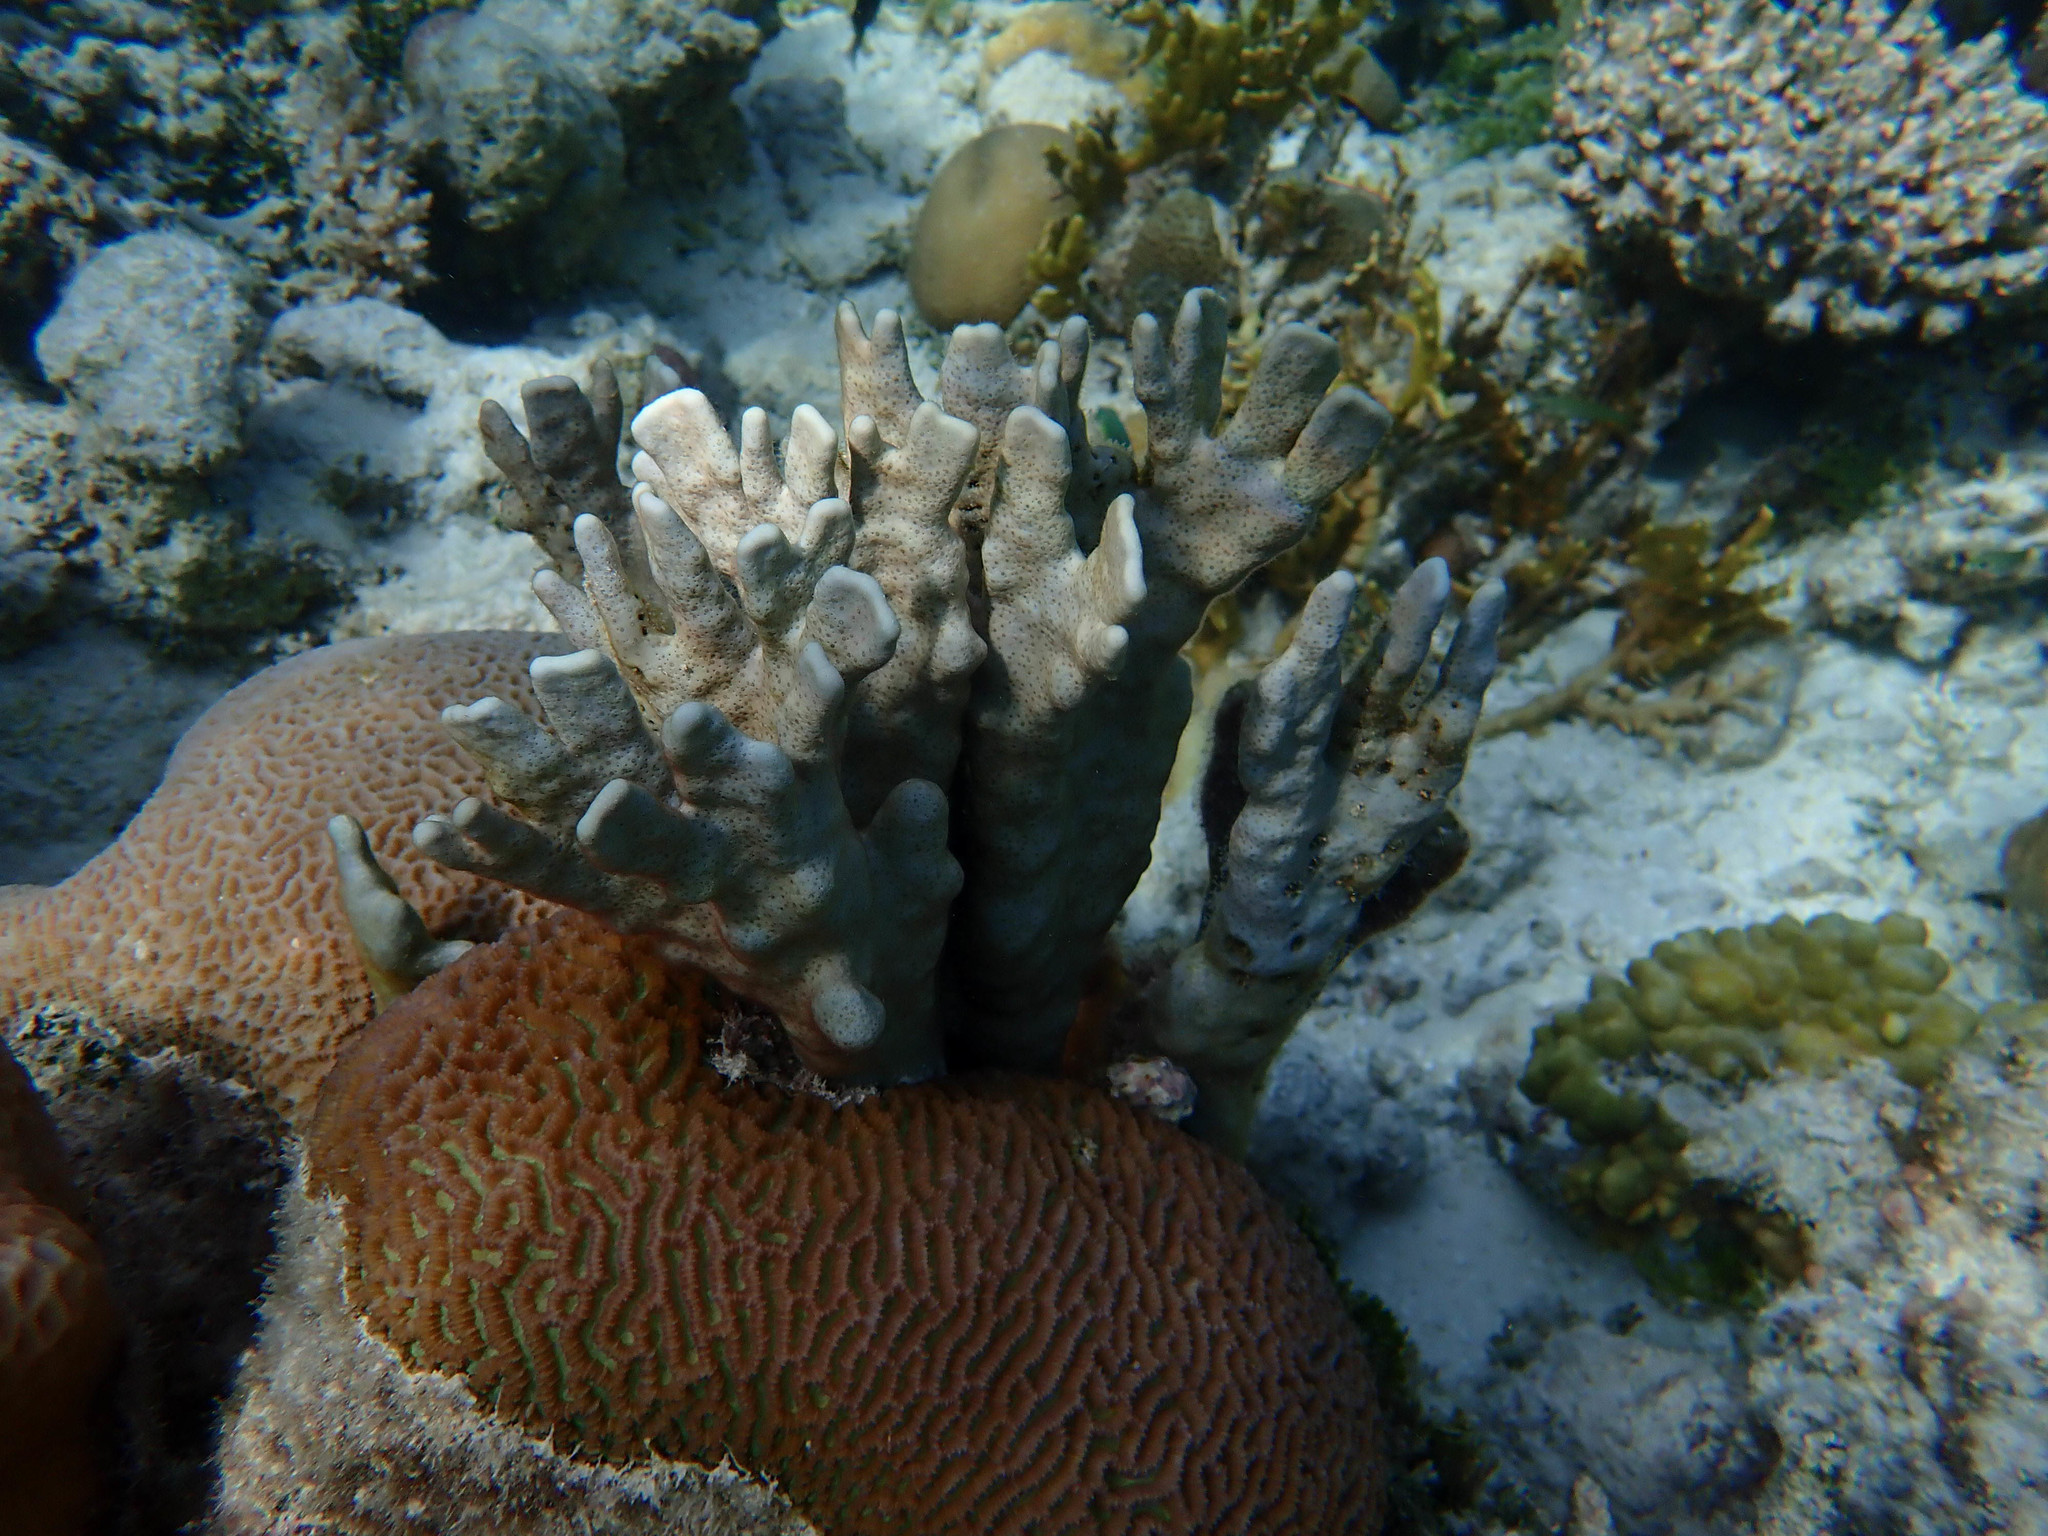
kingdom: Animalia
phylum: Cnidaria
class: Anthozoa
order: Scleralcyonacea
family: Helioporidae
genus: Heliopora
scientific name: Heliopora coerulea
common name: Blue coral
